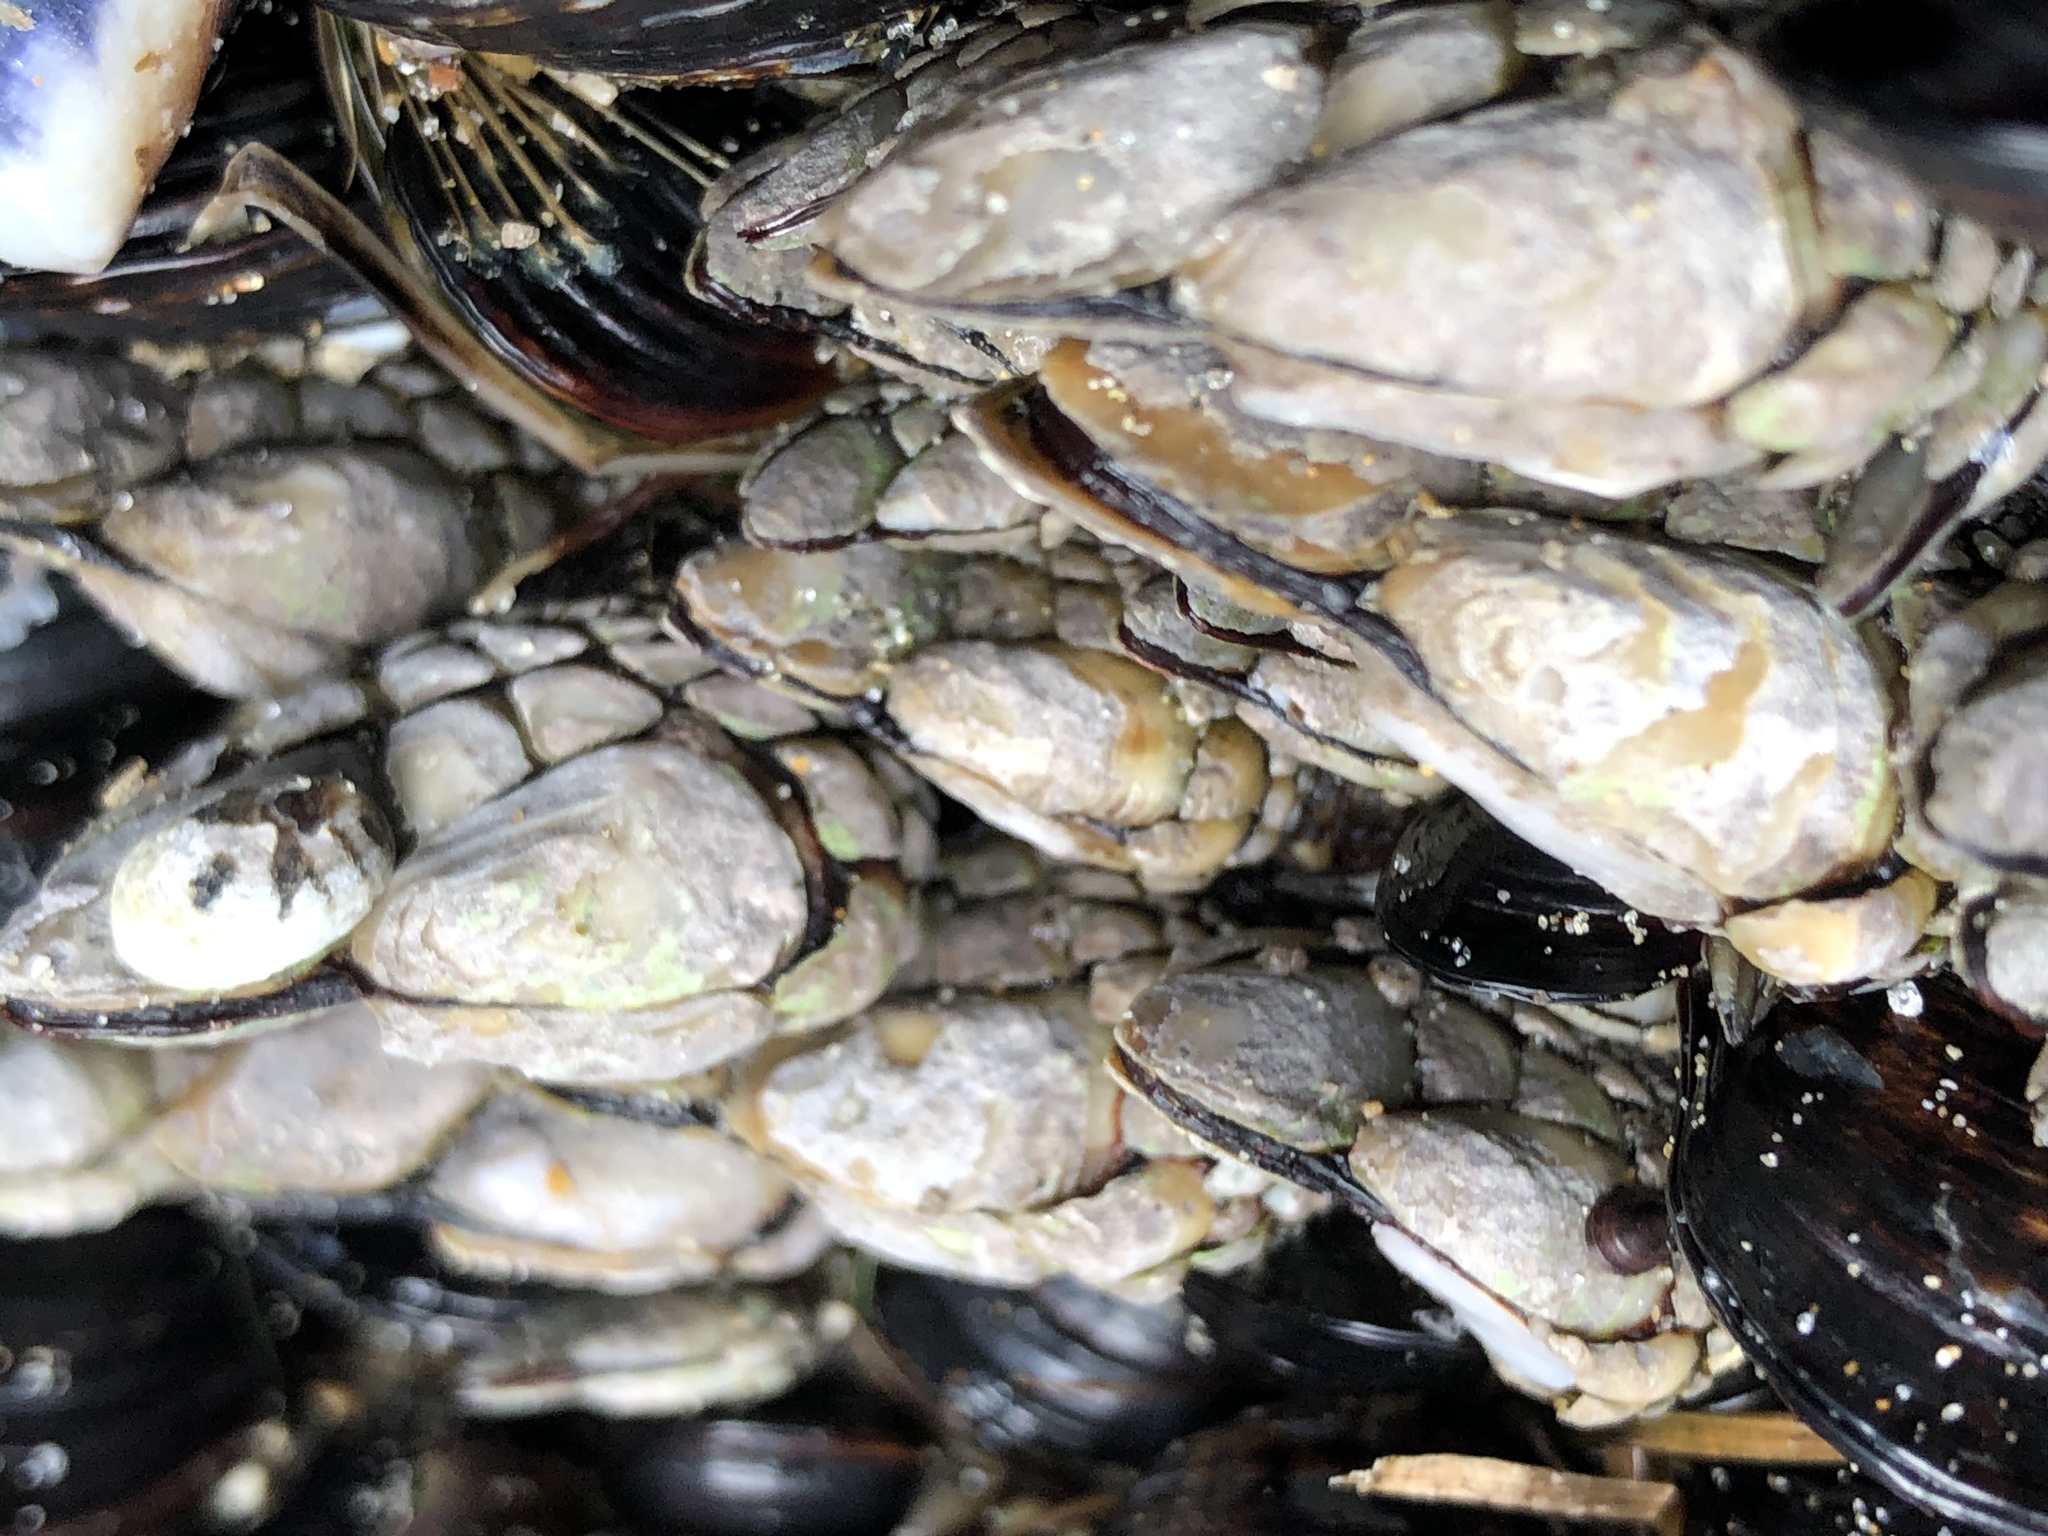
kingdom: Animalia
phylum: Arthropoda
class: Maxillopoda
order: Pedunculata
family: Pollicipedidae
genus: Pollicipes
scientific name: Pollicipes polymerus
